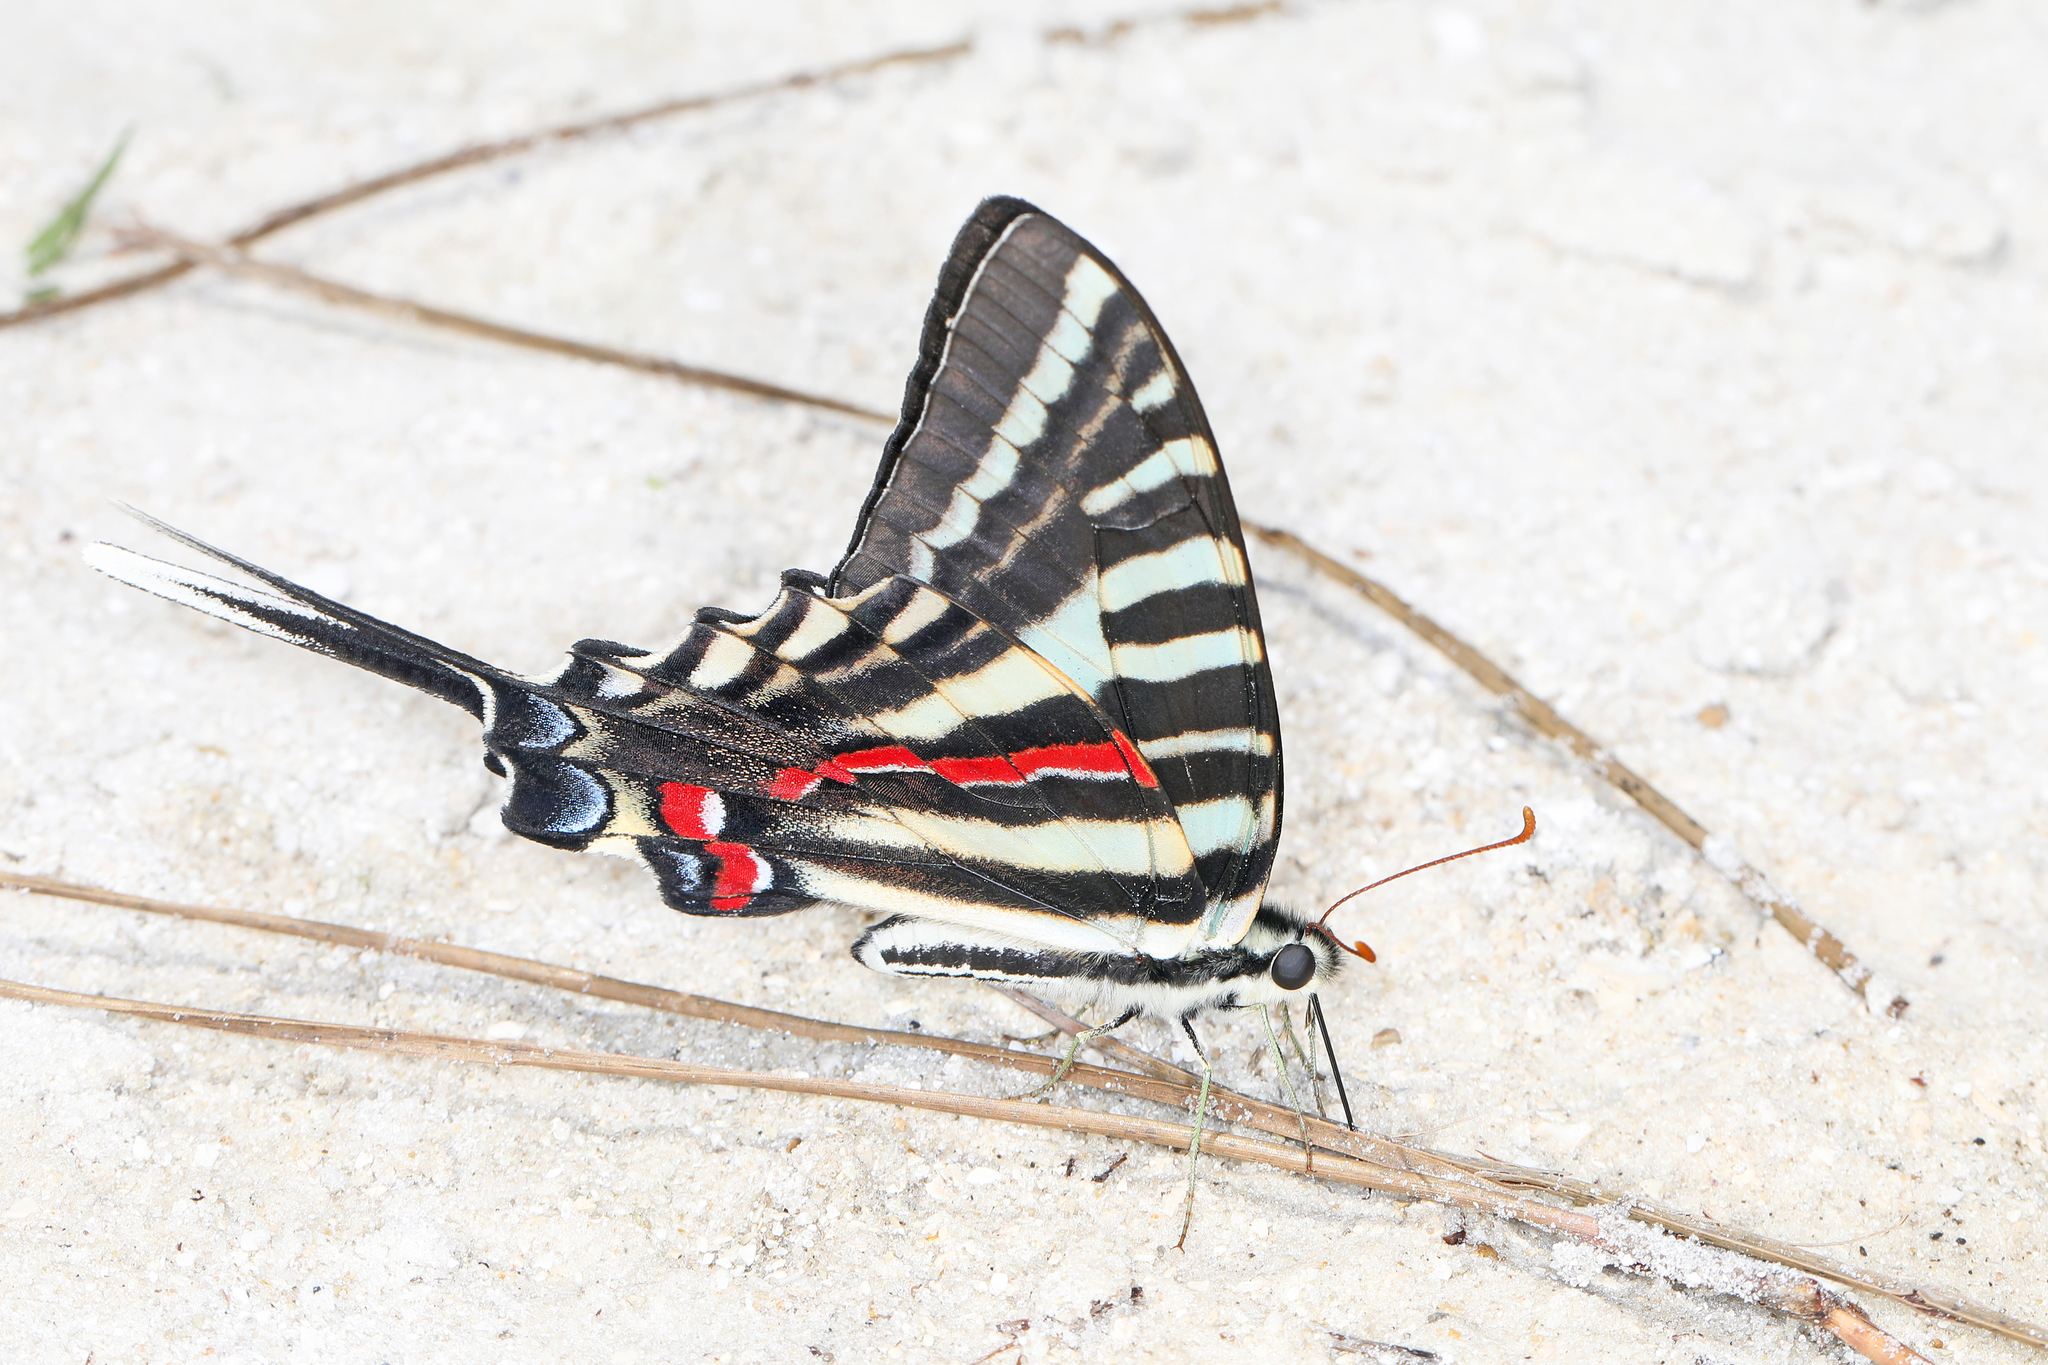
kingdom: Animalia
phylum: Arthropoda
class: Insecta
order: Lepidoptera
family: Papilionidae
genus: Protographium
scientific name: Protographium marcellus
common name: Zebra swallowtail
